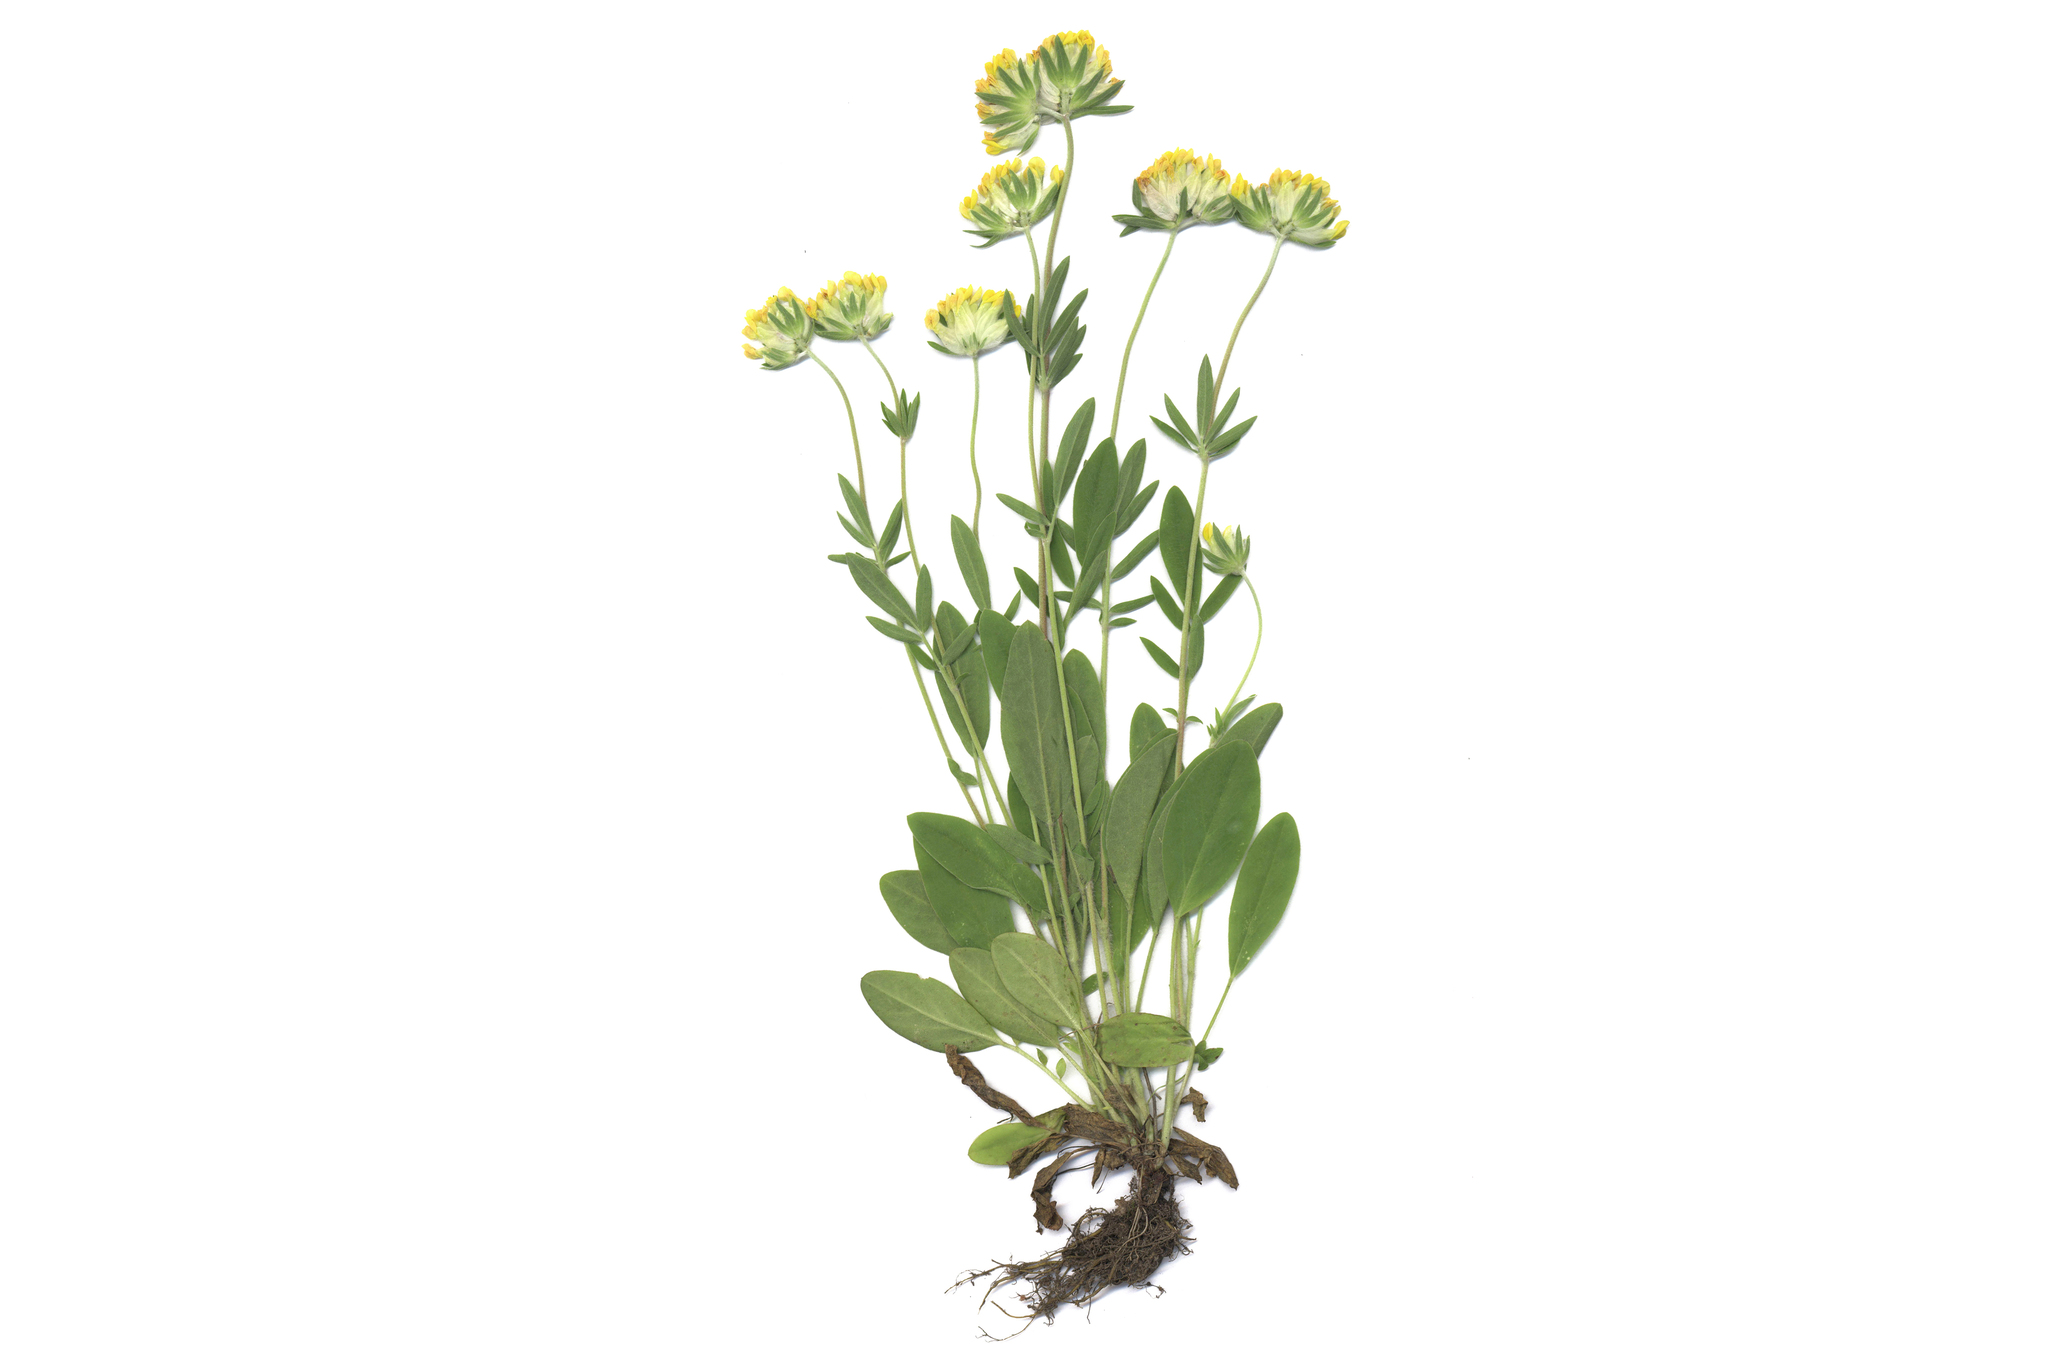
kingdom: Plantae
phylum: Tracheophyta
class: Magnoliopsida
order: Fabales
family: Fabaceae
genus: Anthyllis
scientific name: Anthyllis vulneraria
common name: Kidney vetch
